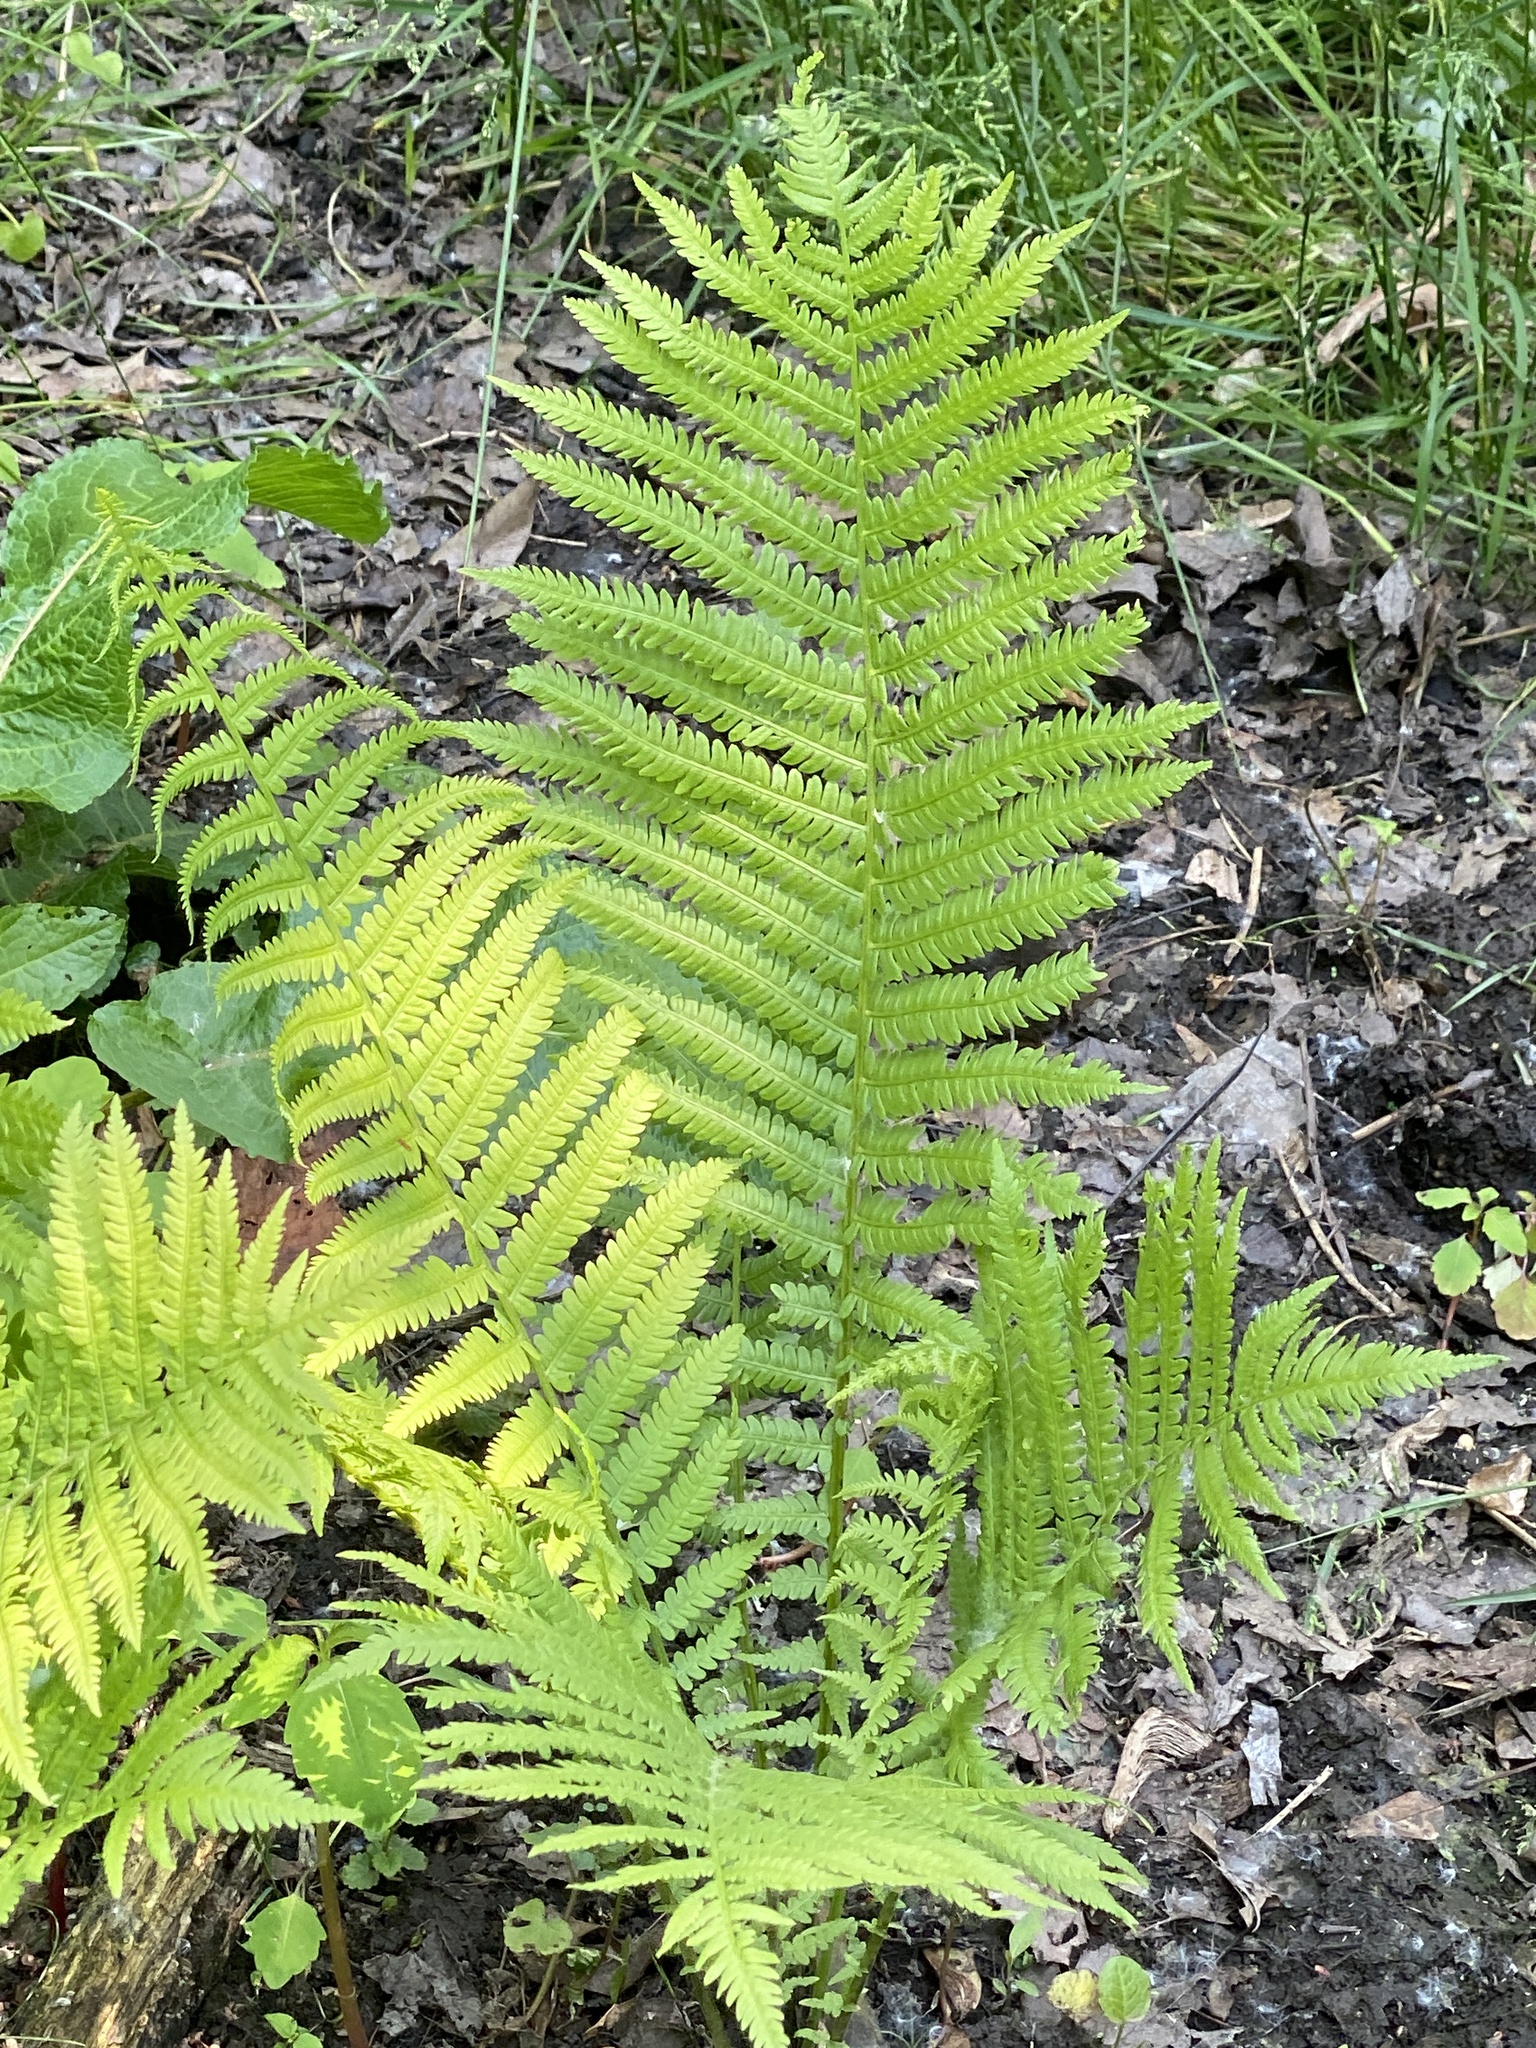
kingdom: Plantae
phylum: Tracheophyta
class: Polypodiopsida
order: Polypodiales
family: Onocleaceae
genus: Matteuccia
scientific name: Matteuccia struthiopteris
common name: Ostrich fern
